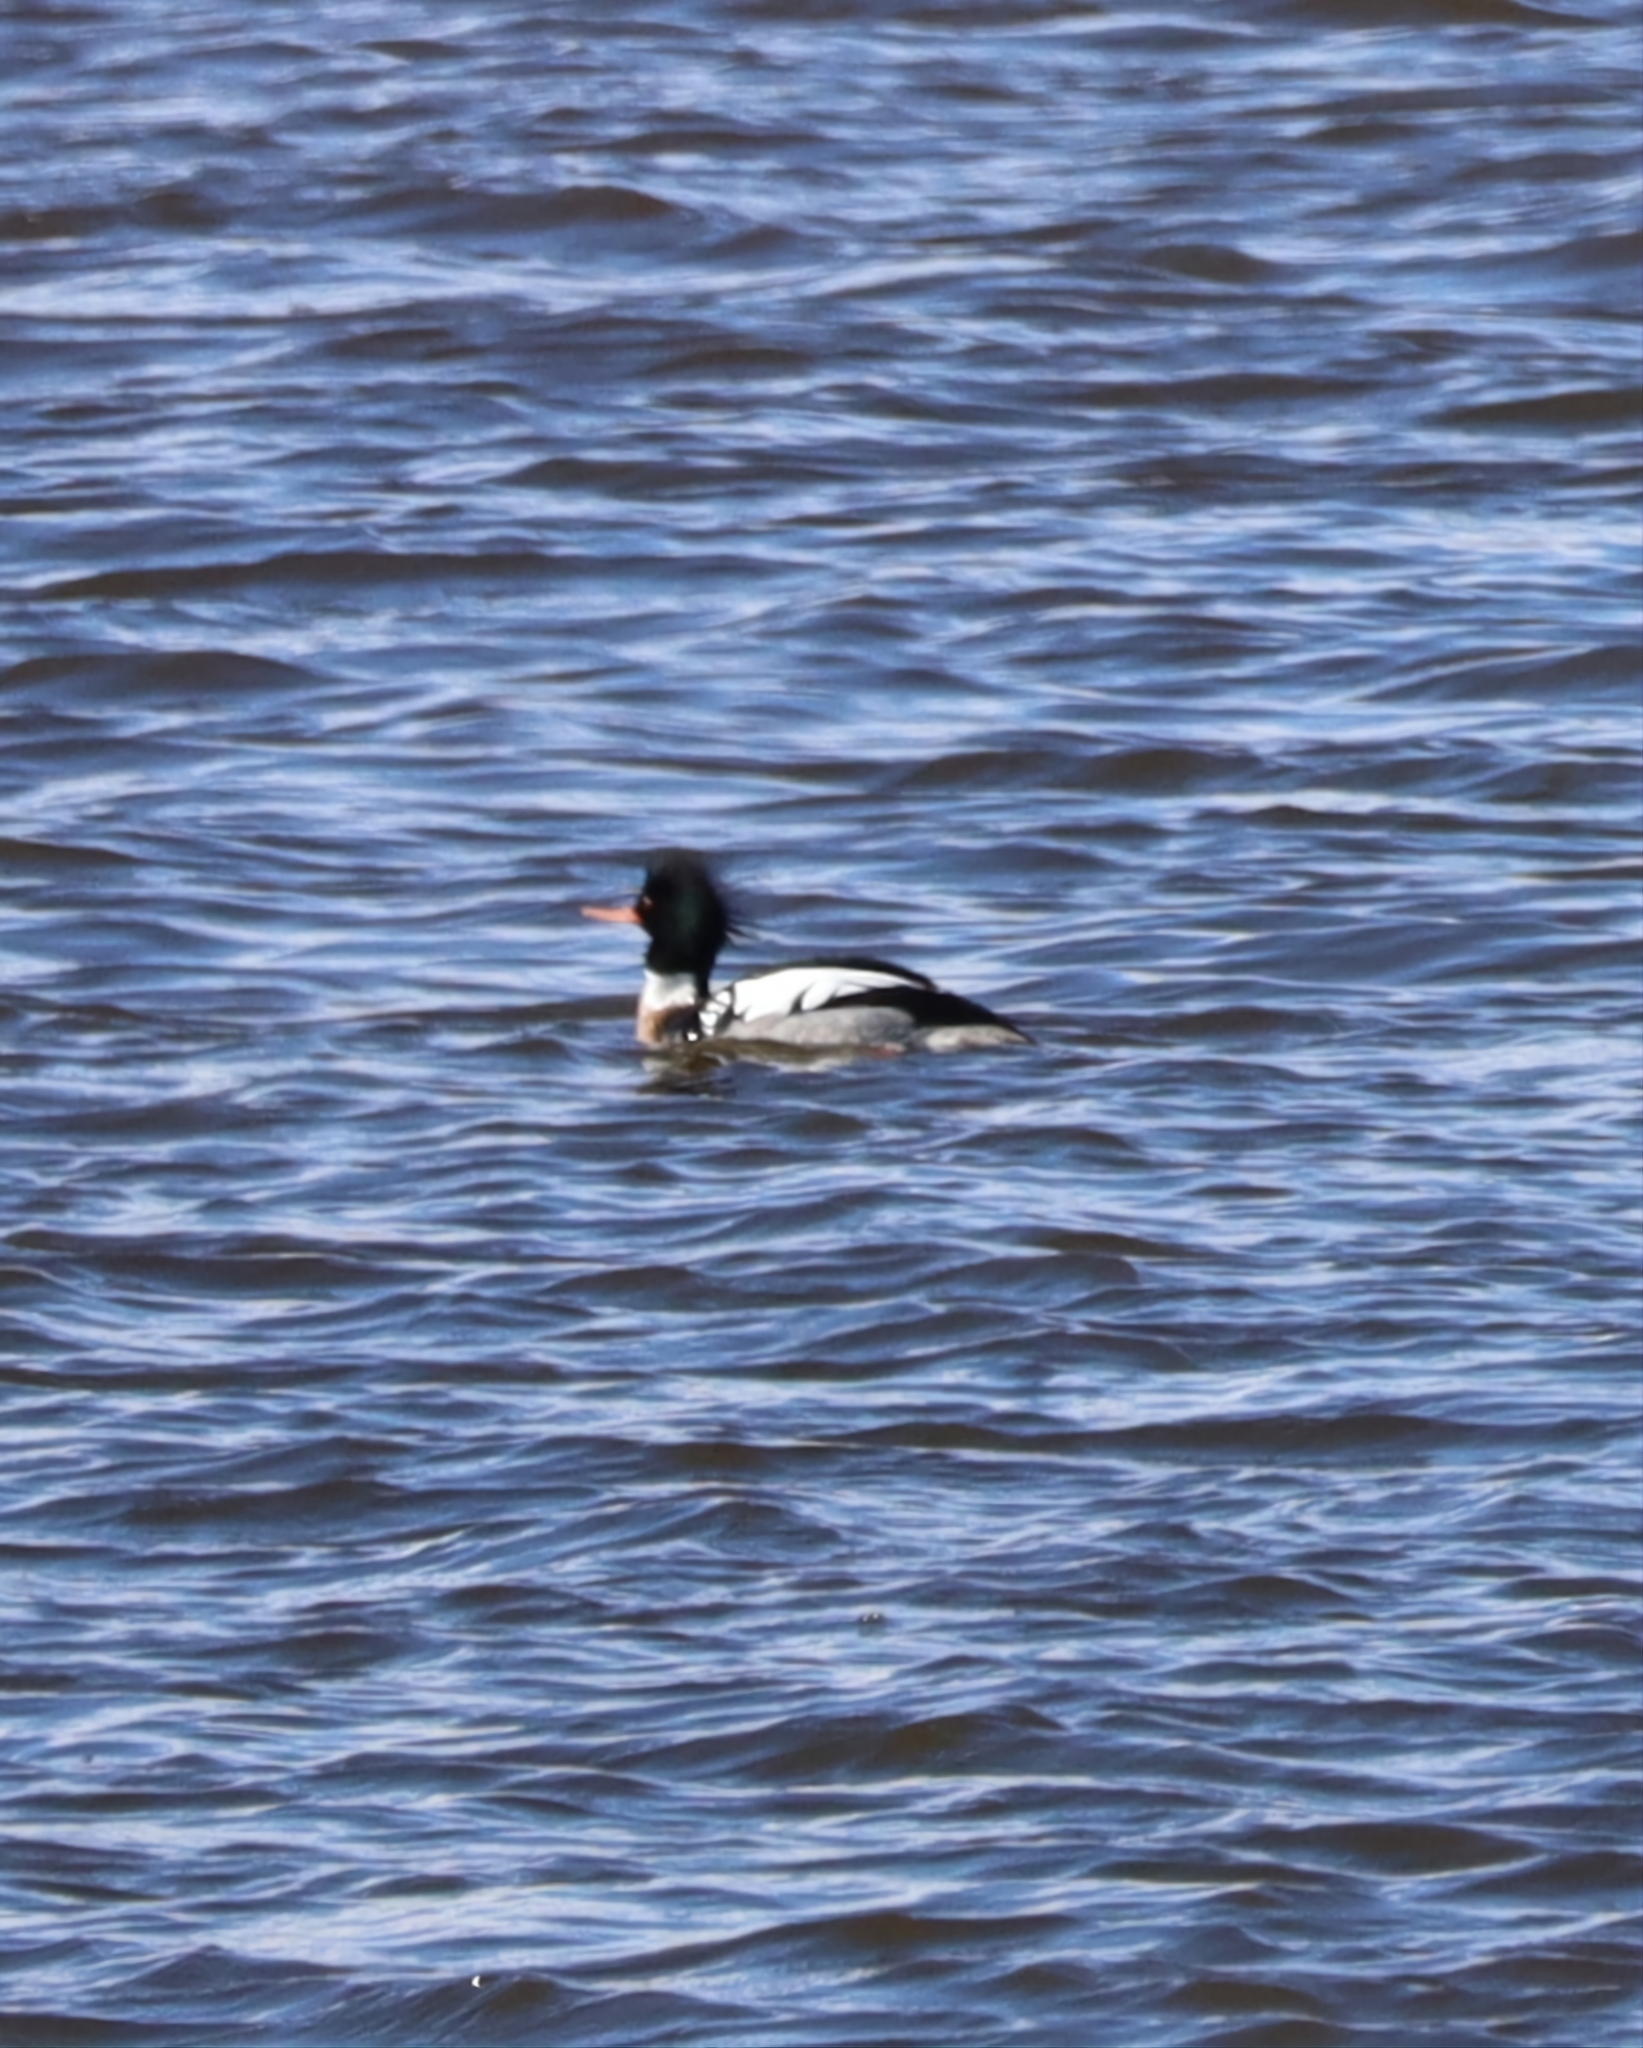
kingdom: Animalia
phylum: Chordata
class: Aves
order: Anseriformes
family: Anatidae
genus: Mergus
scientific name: Mergus serrator
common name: Red-breasted merganser
